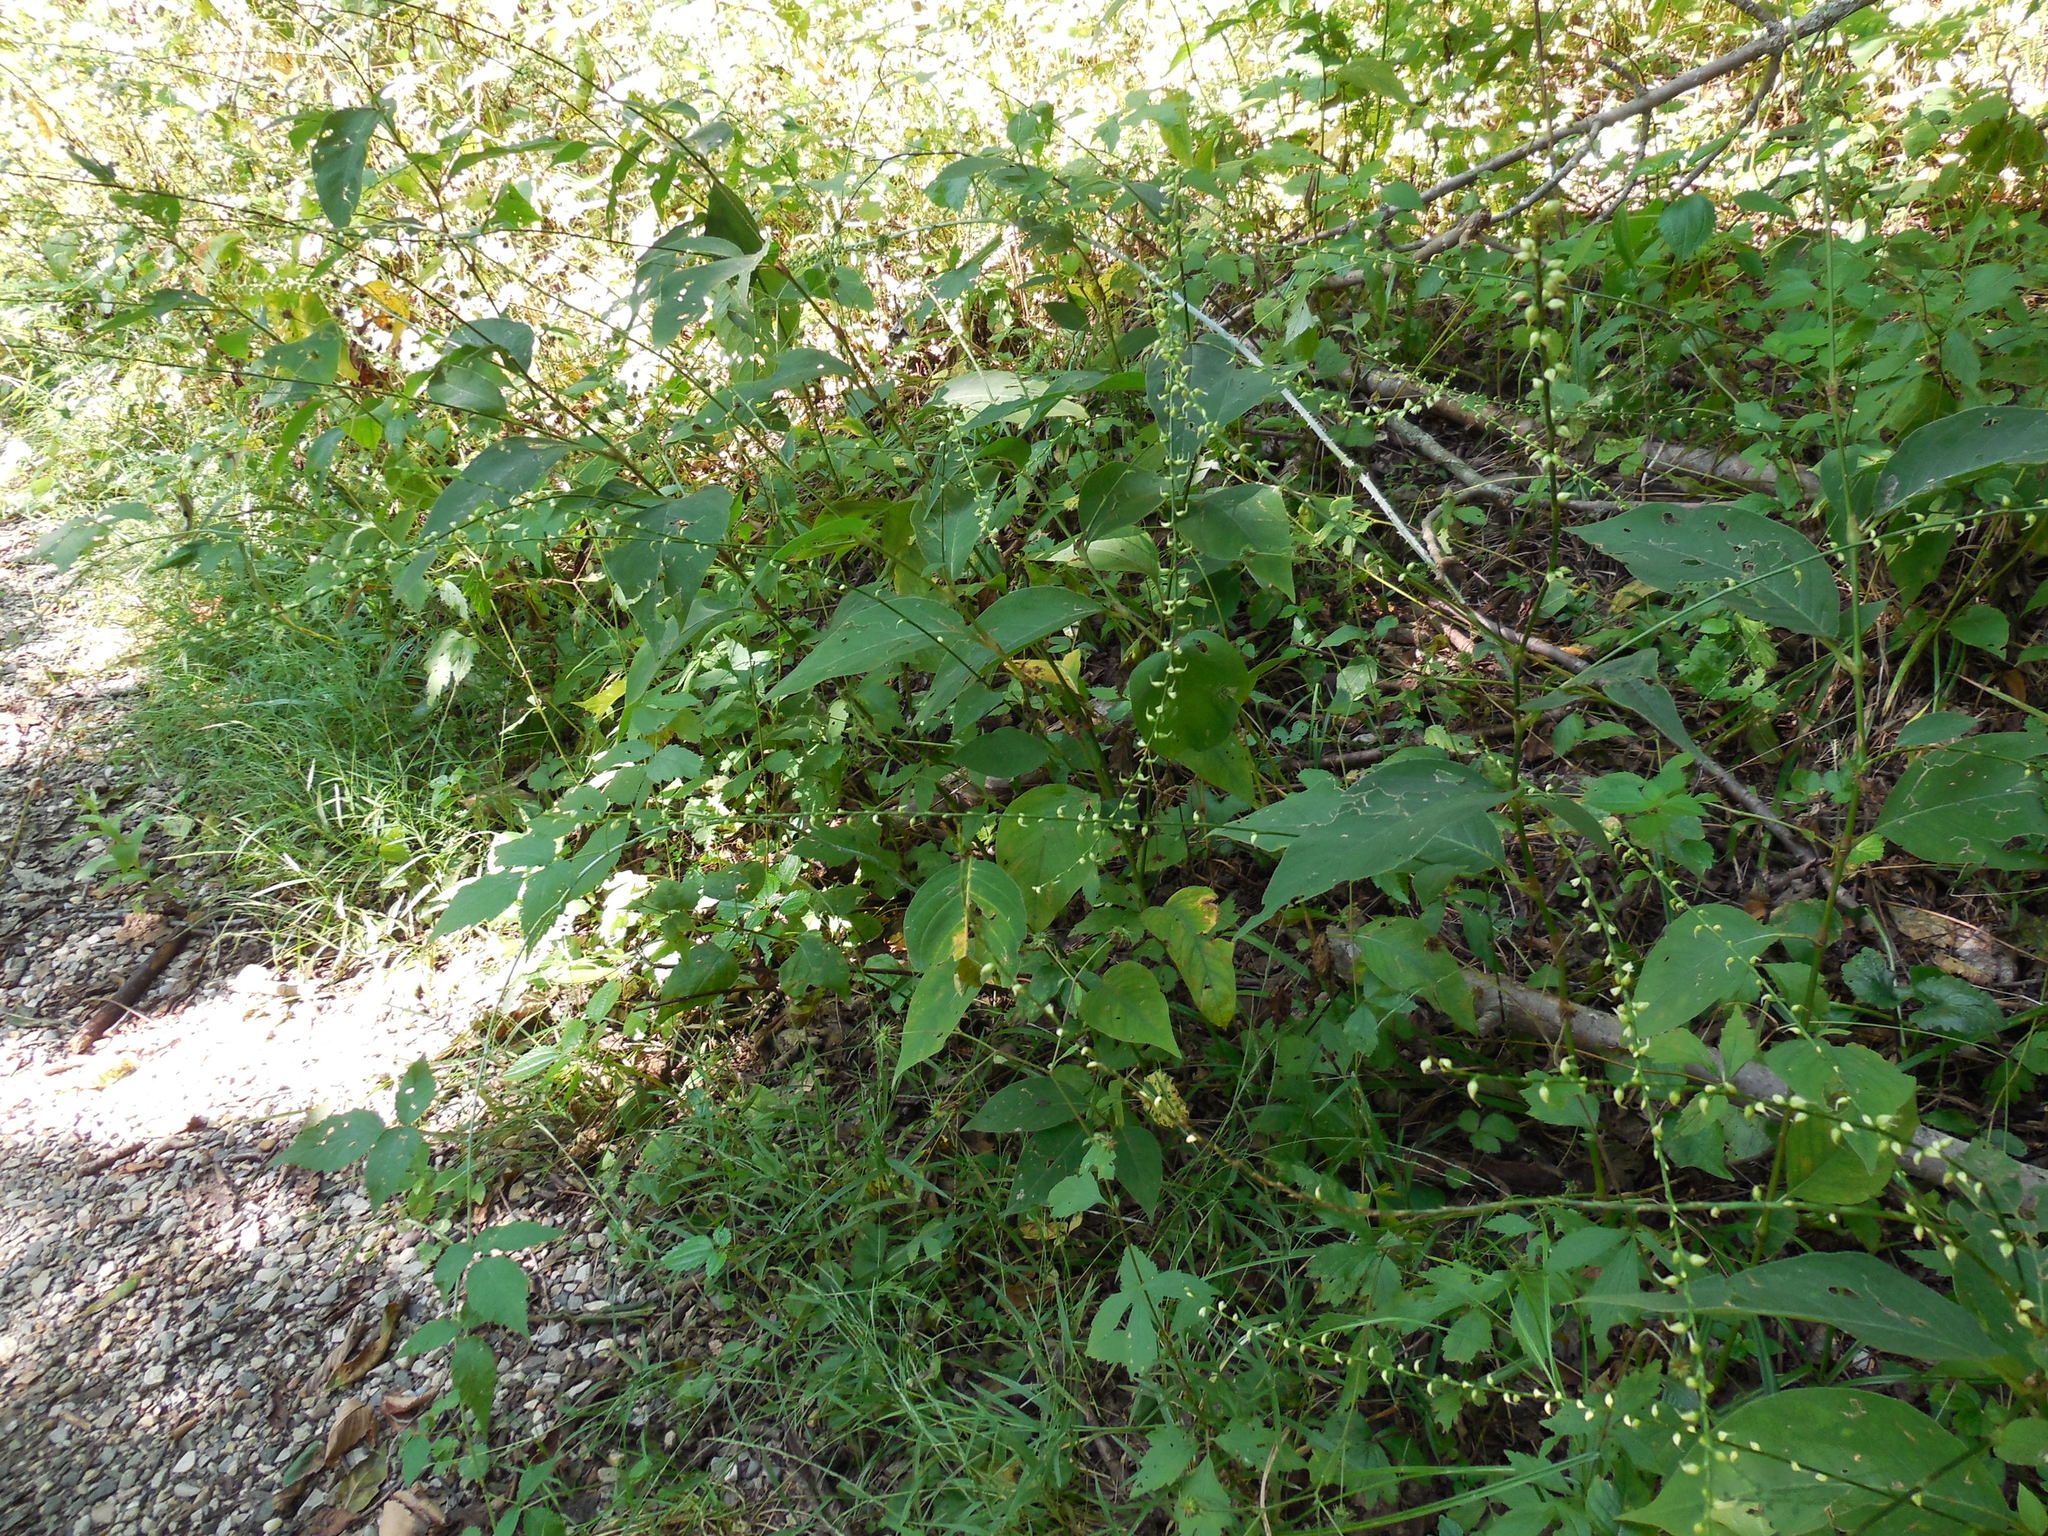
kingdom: Plantae
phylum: Tracheophyta
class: Magnoliopsida
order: Caryophyllales
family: Polygonaceae
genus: Persicaria
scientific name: Persicaria virginiana
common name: Jumpseed
